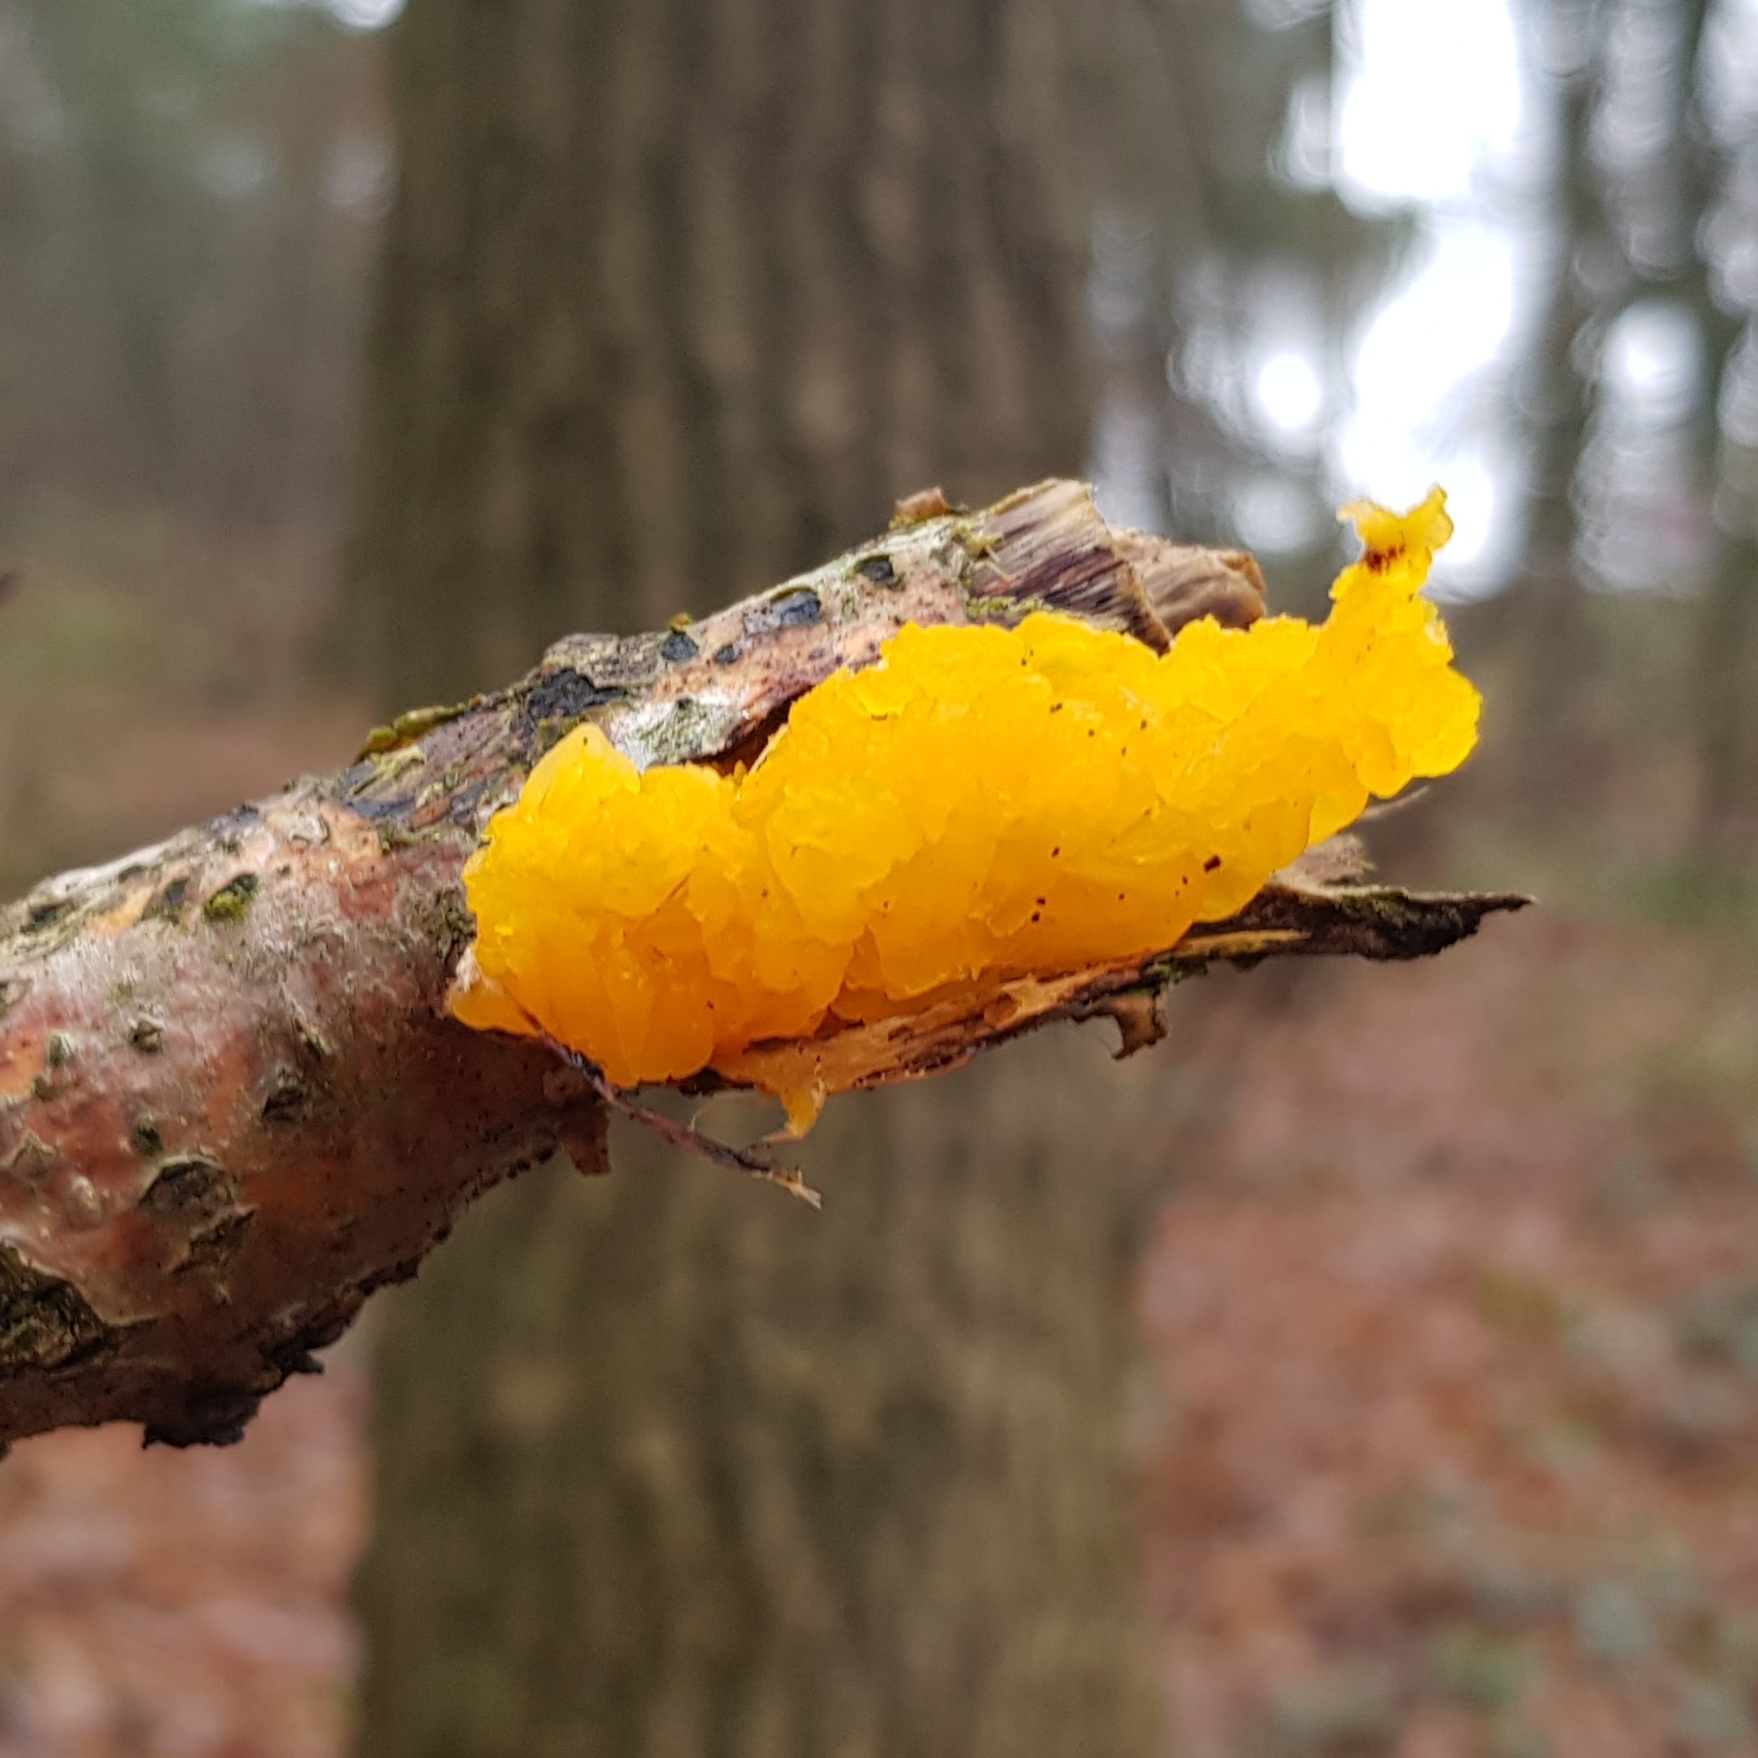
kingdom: Fungi
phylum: Basidiomycota
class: Tremellomycetes
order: Tremellales
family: Tremellaceae
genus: Tremella
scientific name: Tremella mesenterica
